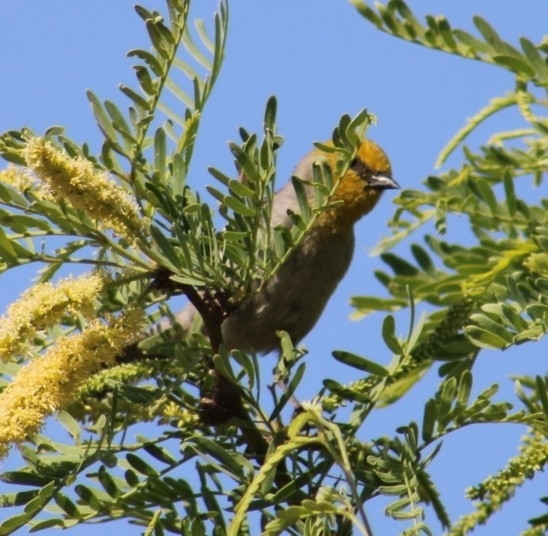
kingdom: Animalia
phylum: Chordata
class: Aves
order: Passeriformes
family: Remizidae
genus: Auriparus
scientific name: Auriparus flaviceps
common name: Verdin
